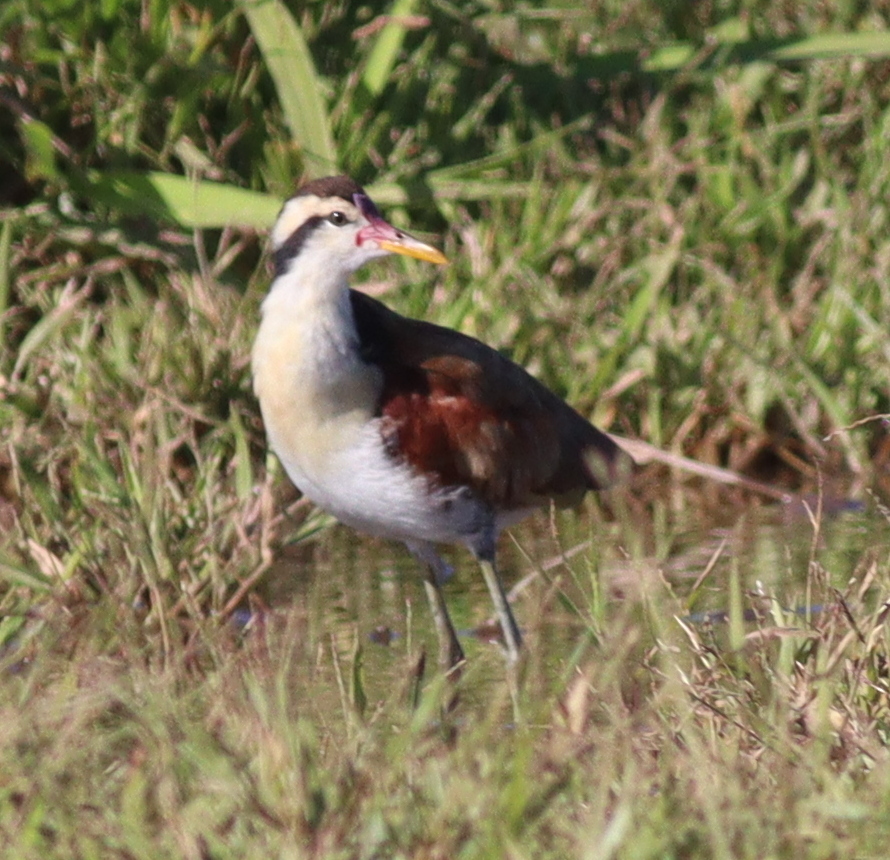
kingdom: Animalia
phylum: Chordata
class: Aves
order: Charadriiformes
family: Jacanidae
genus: Jacana
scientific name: Jacana jacana
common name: Wattled jacana
